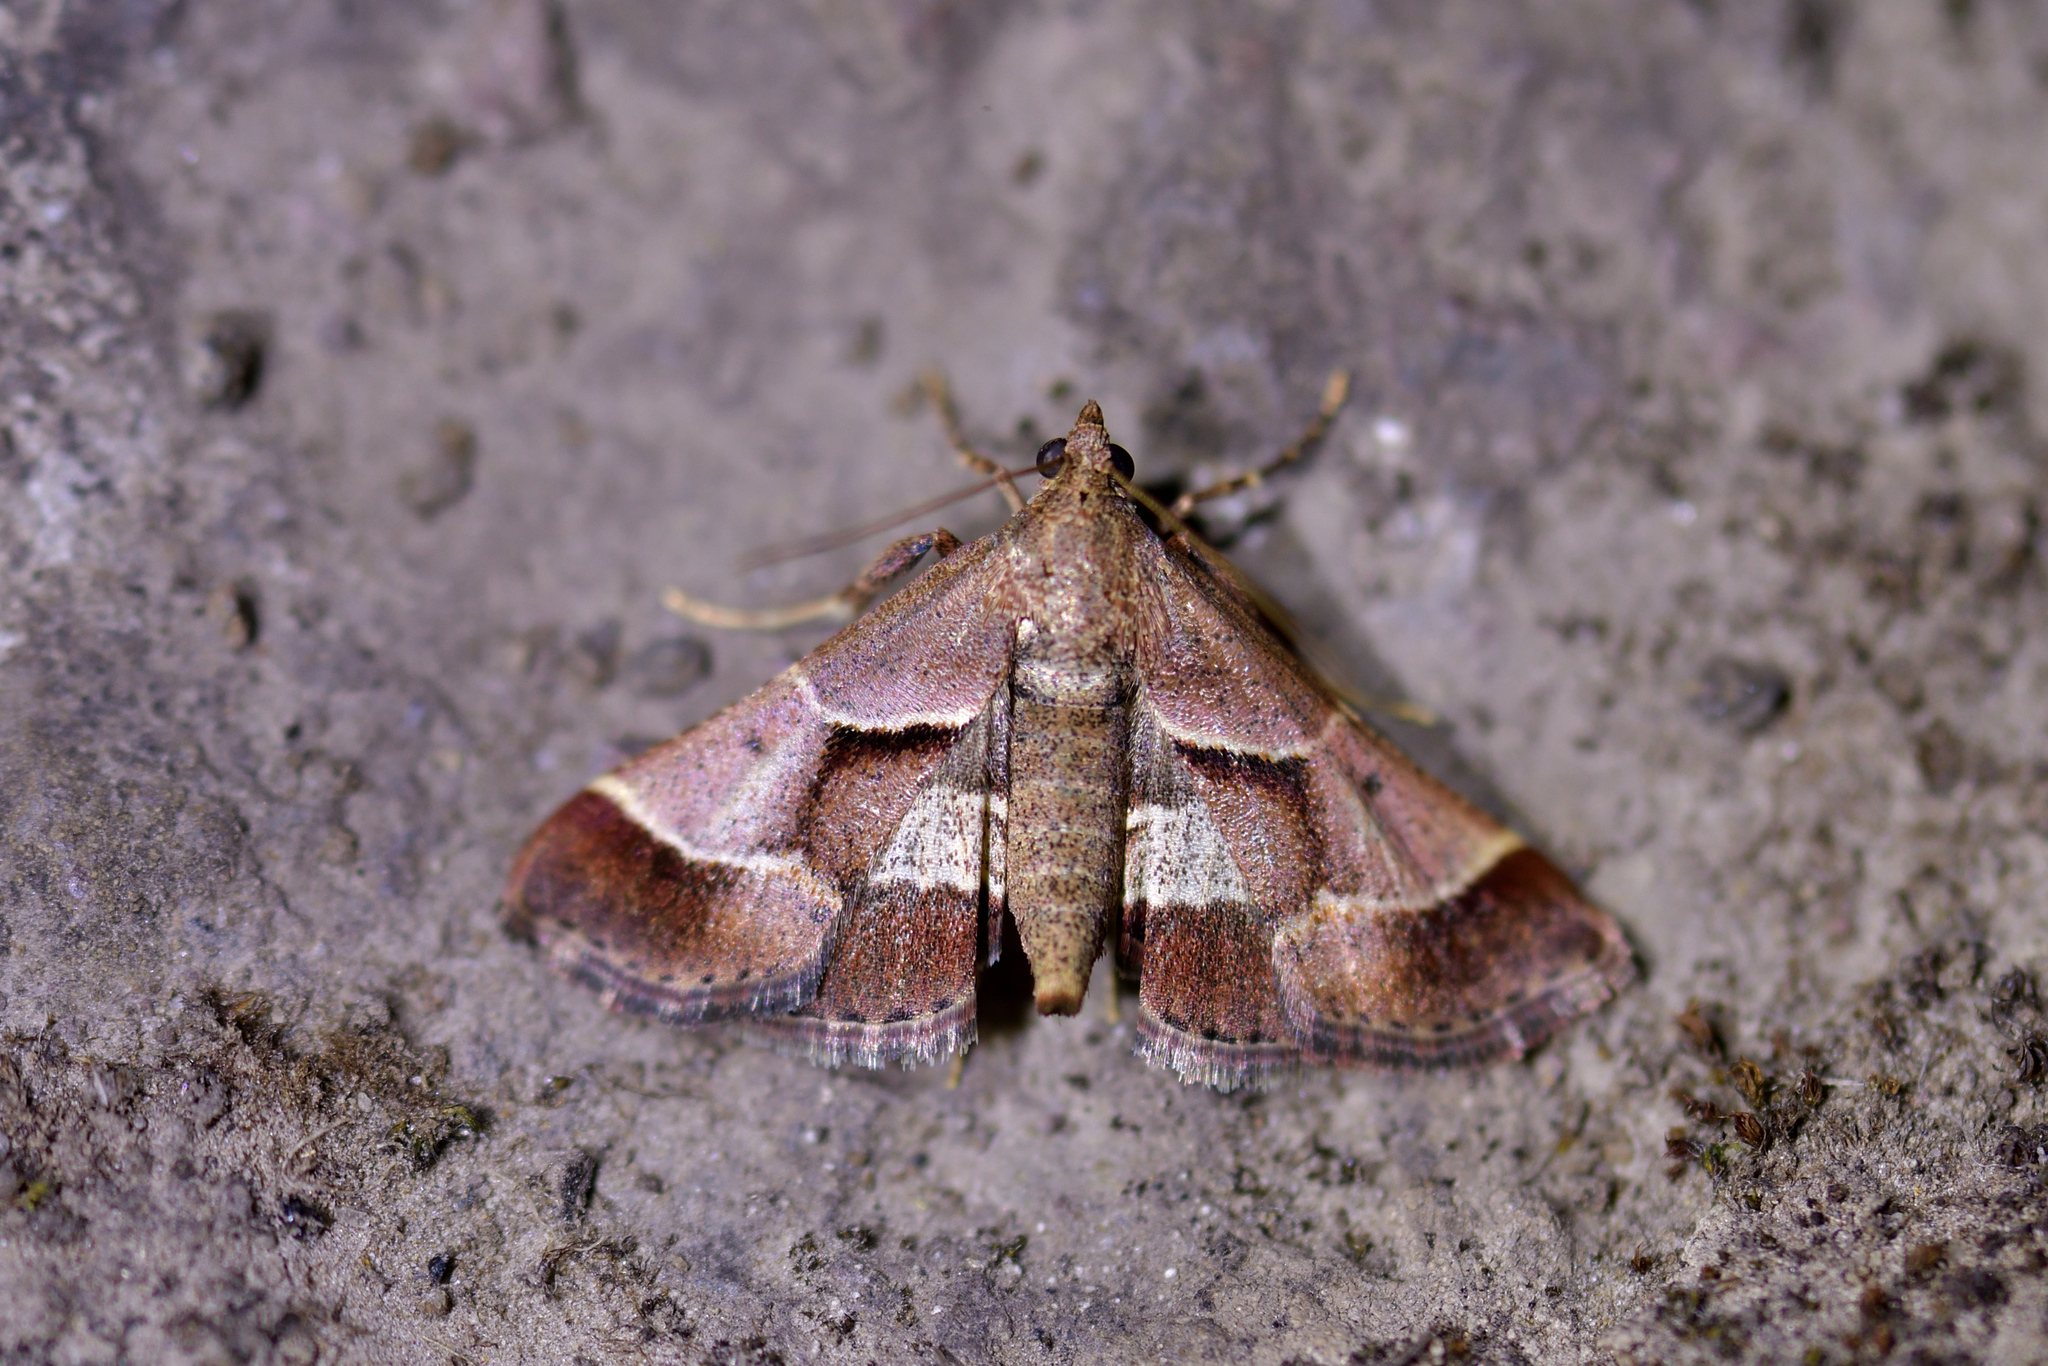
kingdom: Animalia
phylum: Arthropoda
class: Insecta
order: Lepidoptera
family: Pyralidae
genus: Gauna
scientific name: Gauna aegusalis
